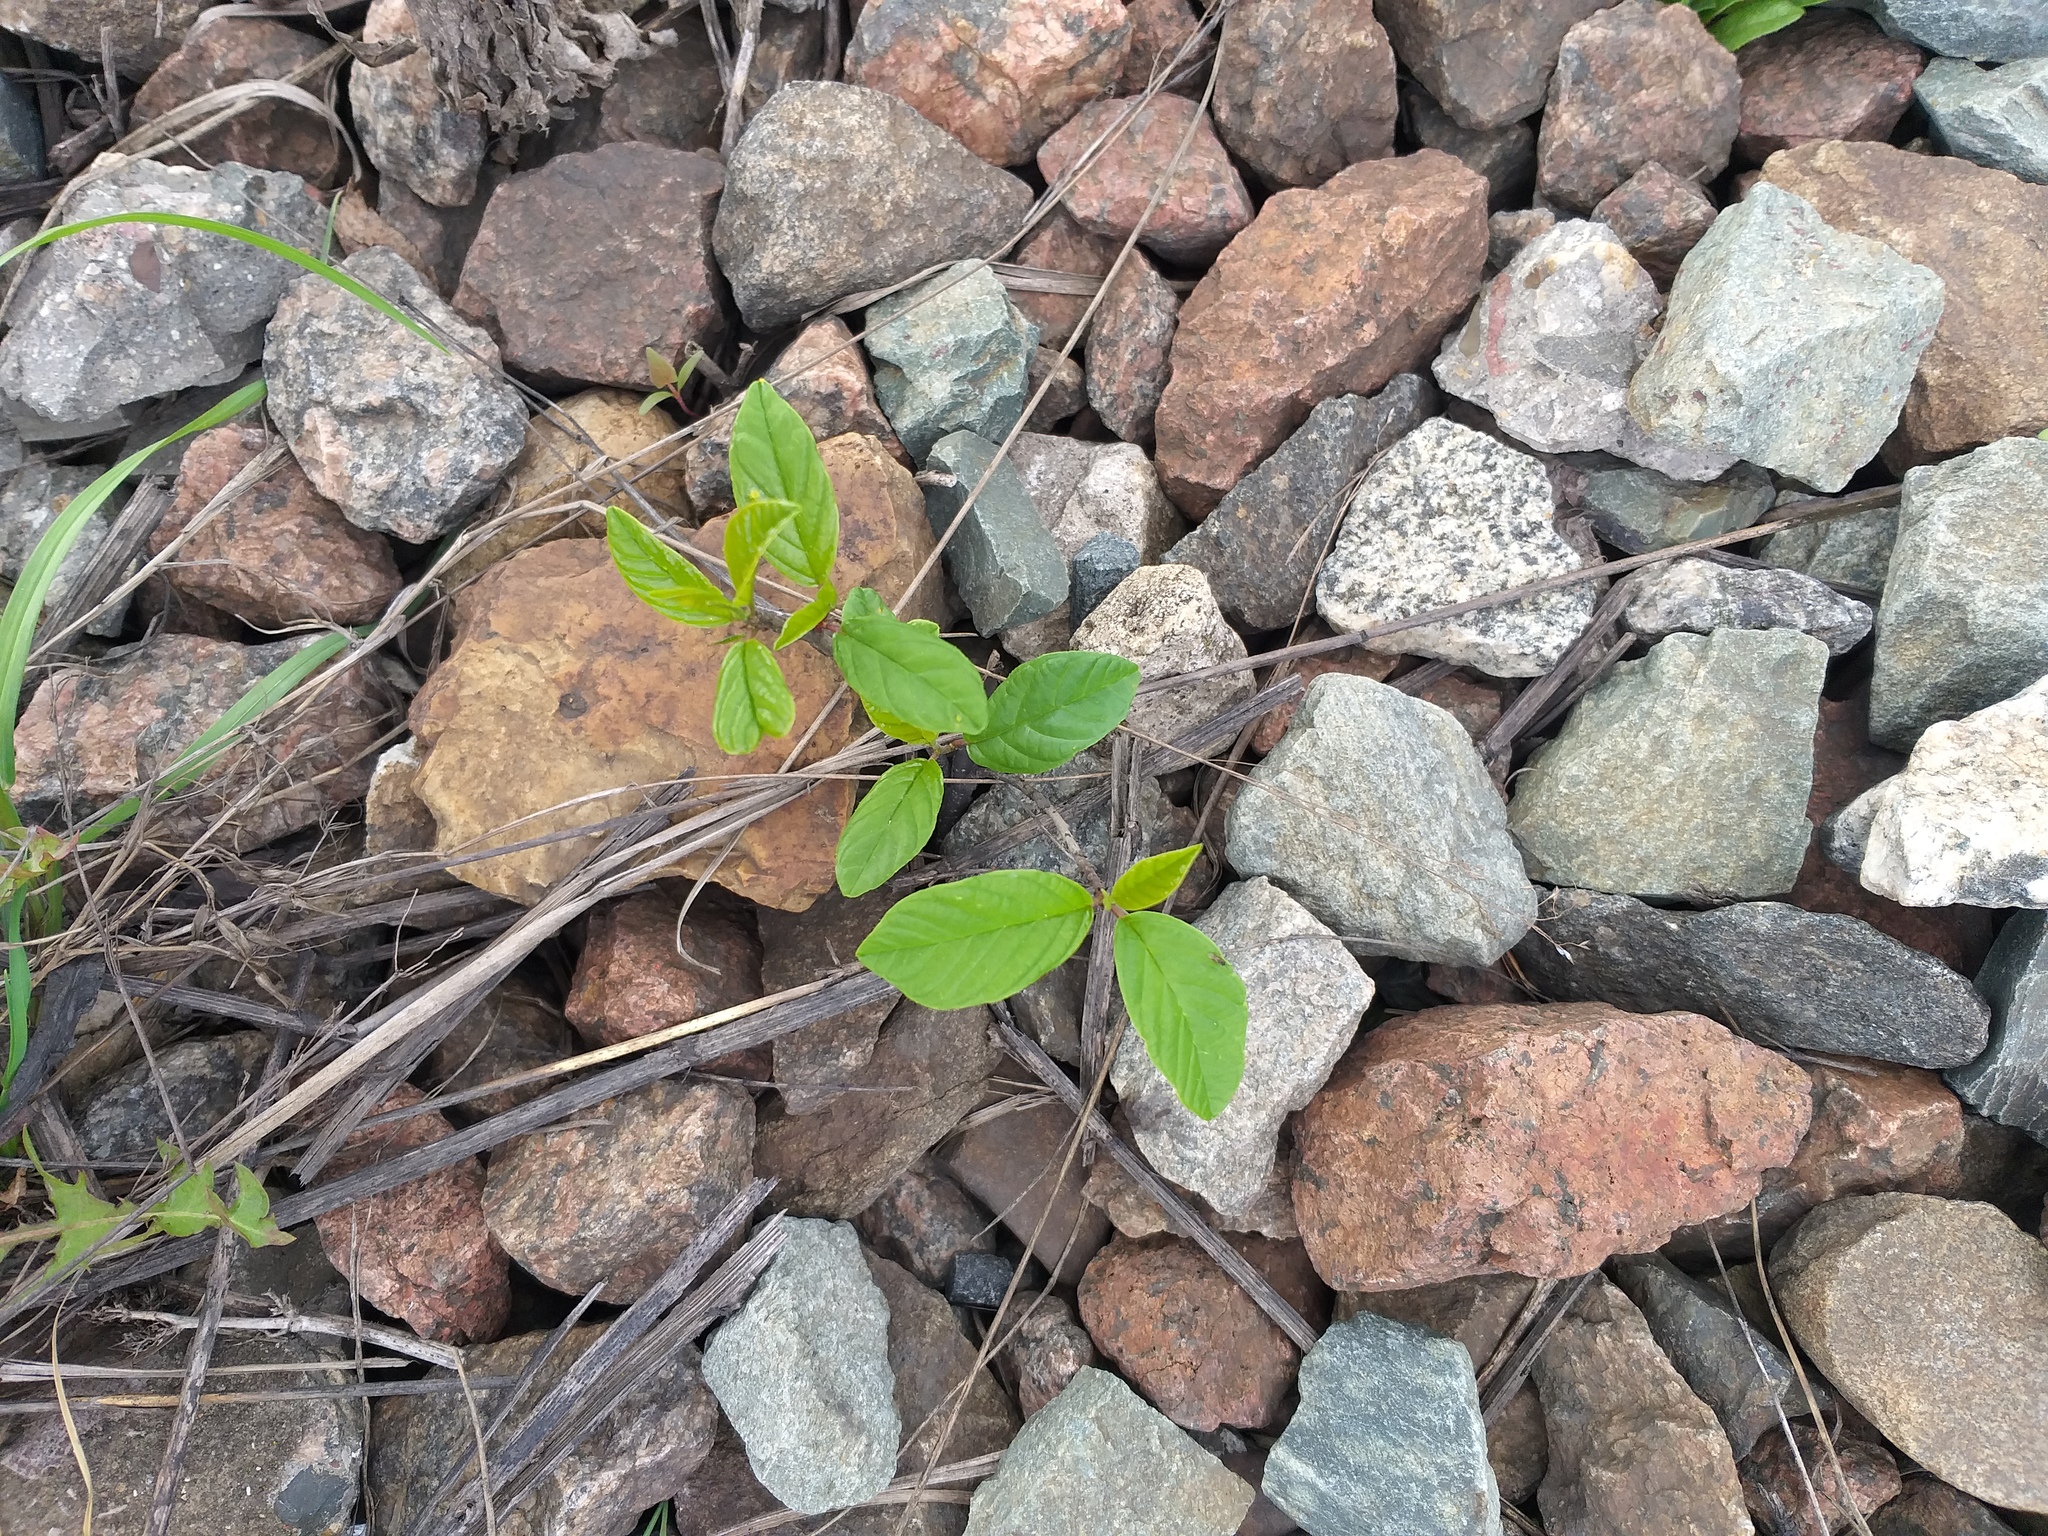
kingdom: Plantae
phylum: Tracheophyta
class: Magnoliopsida
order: Rosales
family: Rhamnaceae
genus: Frangula
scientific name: Frangula alnus
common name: Alder buckthorn
